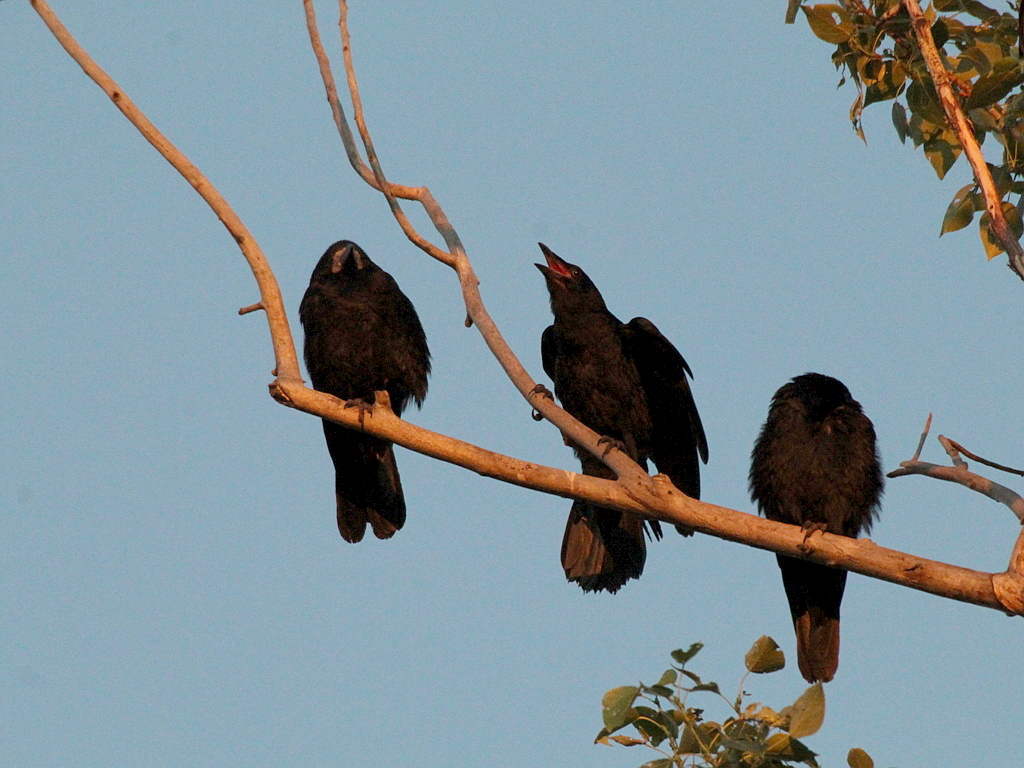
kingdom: Animalia
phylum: Chordata
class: Aves
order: Passeriformes
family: Corvidae
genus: Corvus
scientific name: Corvus frugilegus
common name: Rook
